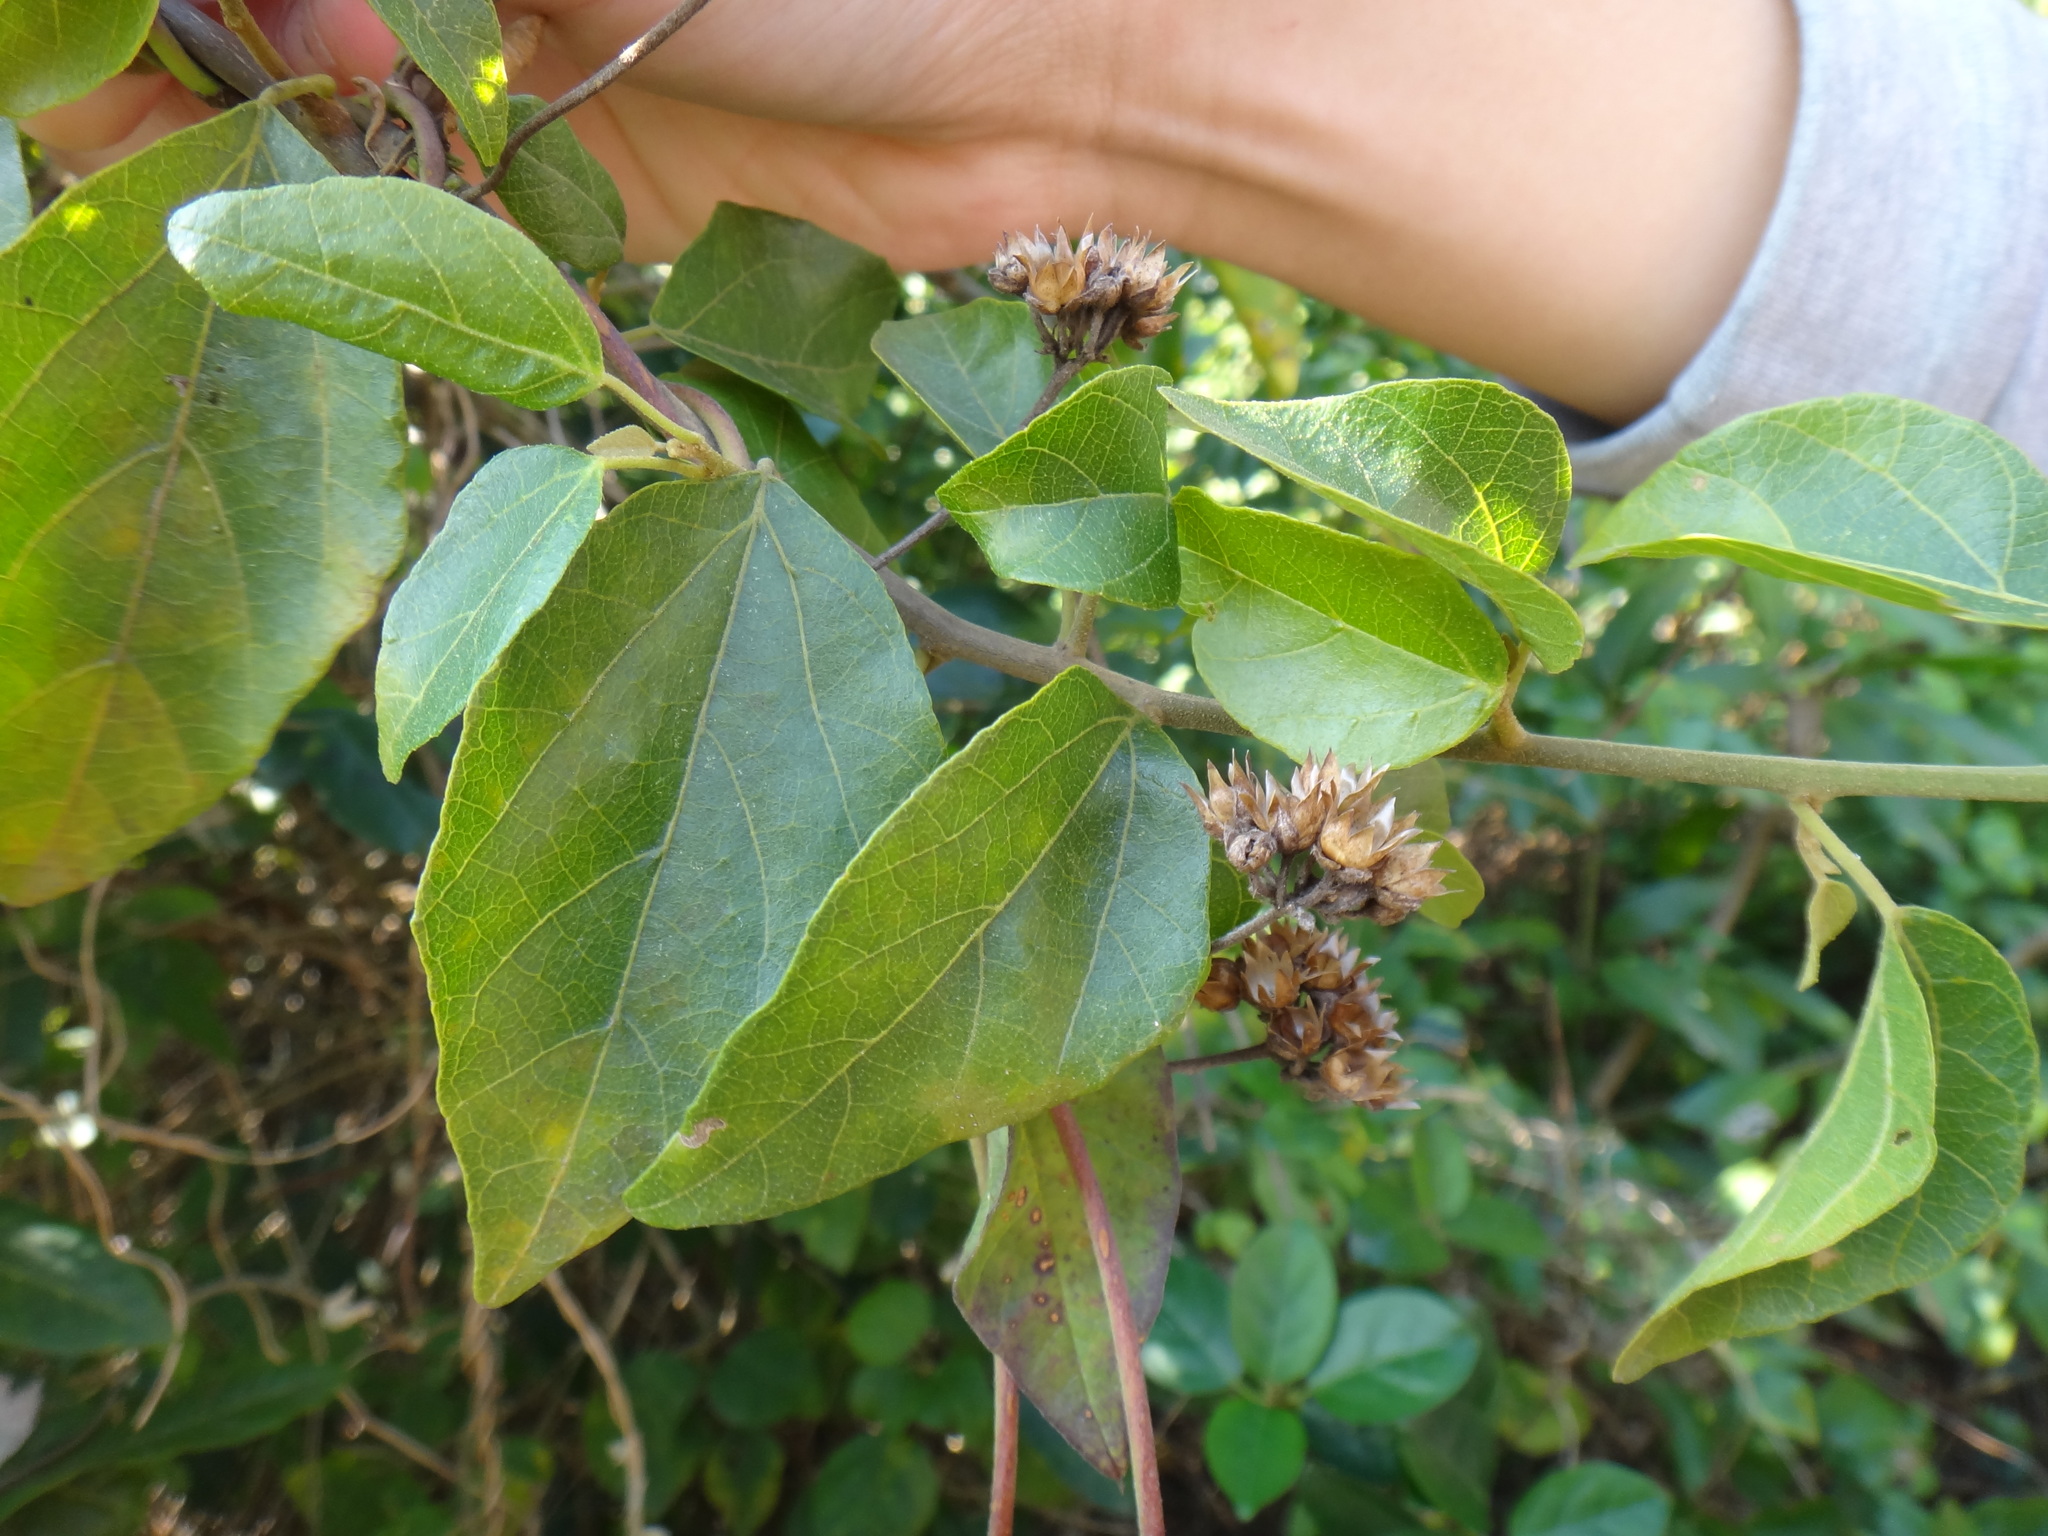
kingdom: Plantae
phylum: Tracheophyta
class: Magnoliopsida
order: Malpighiales
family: Euphorbiaceae
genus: Mallotus
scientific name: Mallotus repandus
